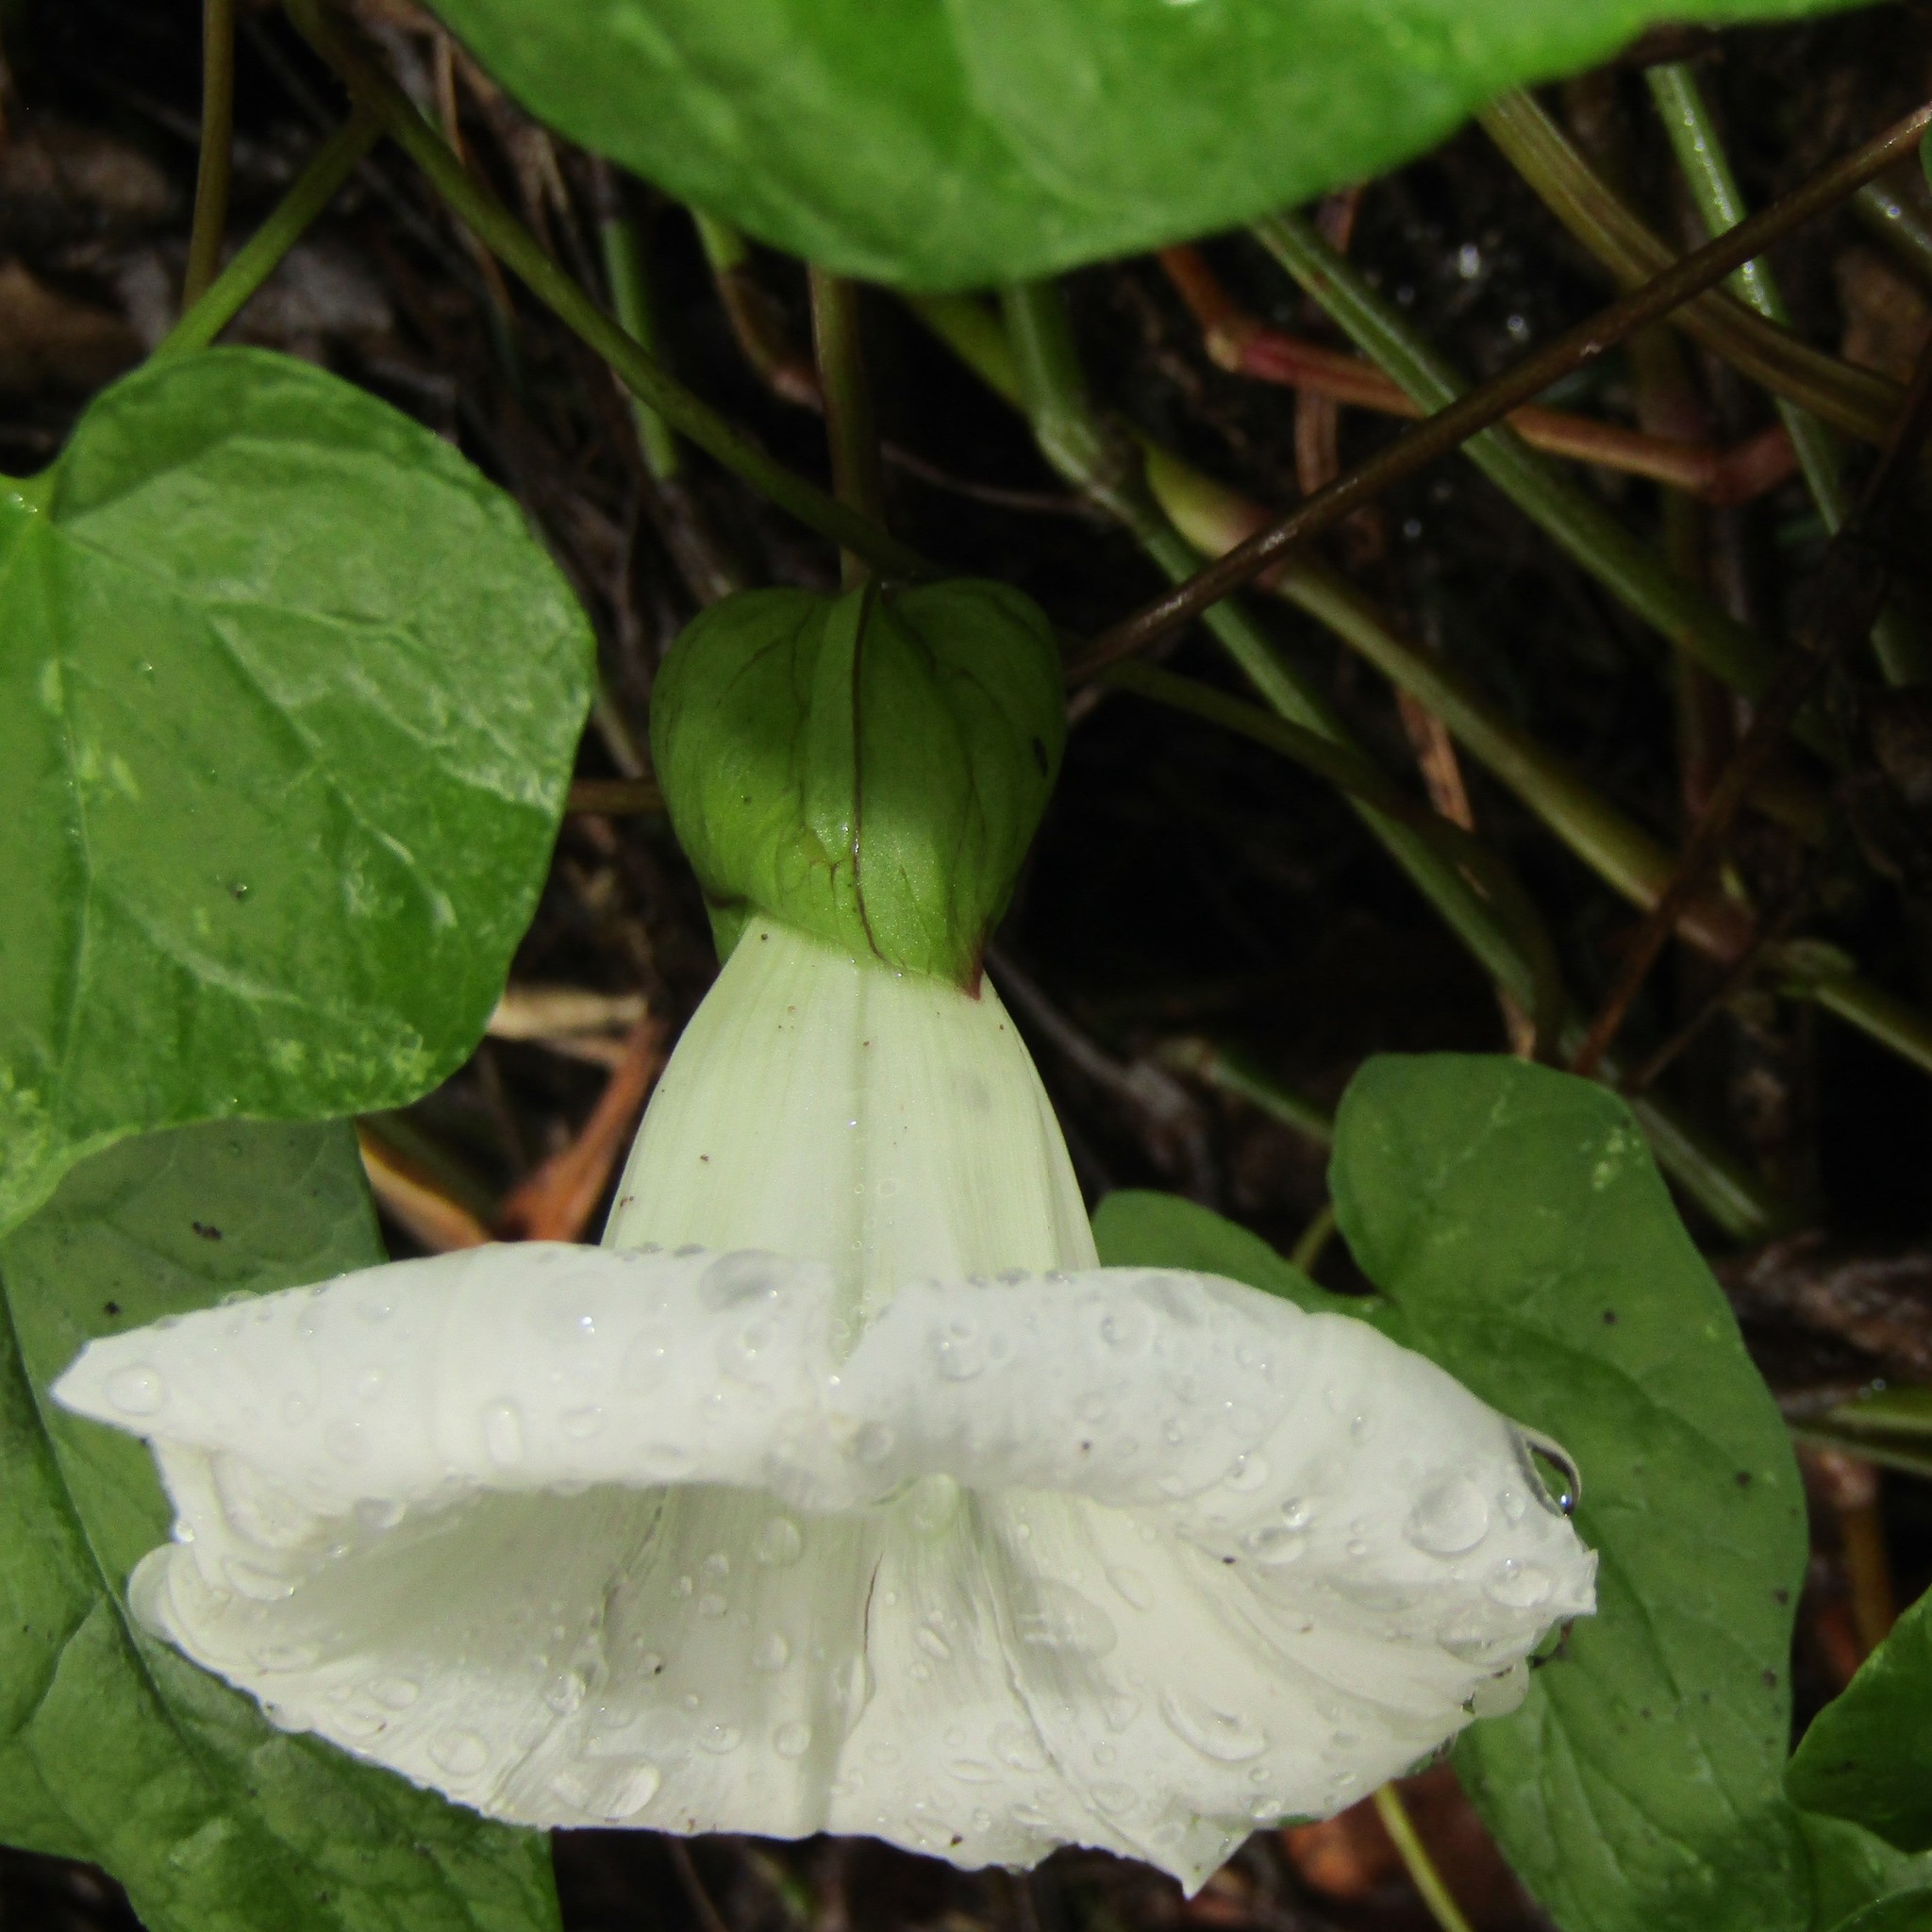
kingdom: Plantae
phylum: Tracheophyta
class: Magnoliopsida
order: Solanales
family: Convolvulaceae
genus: Calystegia
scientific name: Calystegia silvatica
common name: Large bindweed
